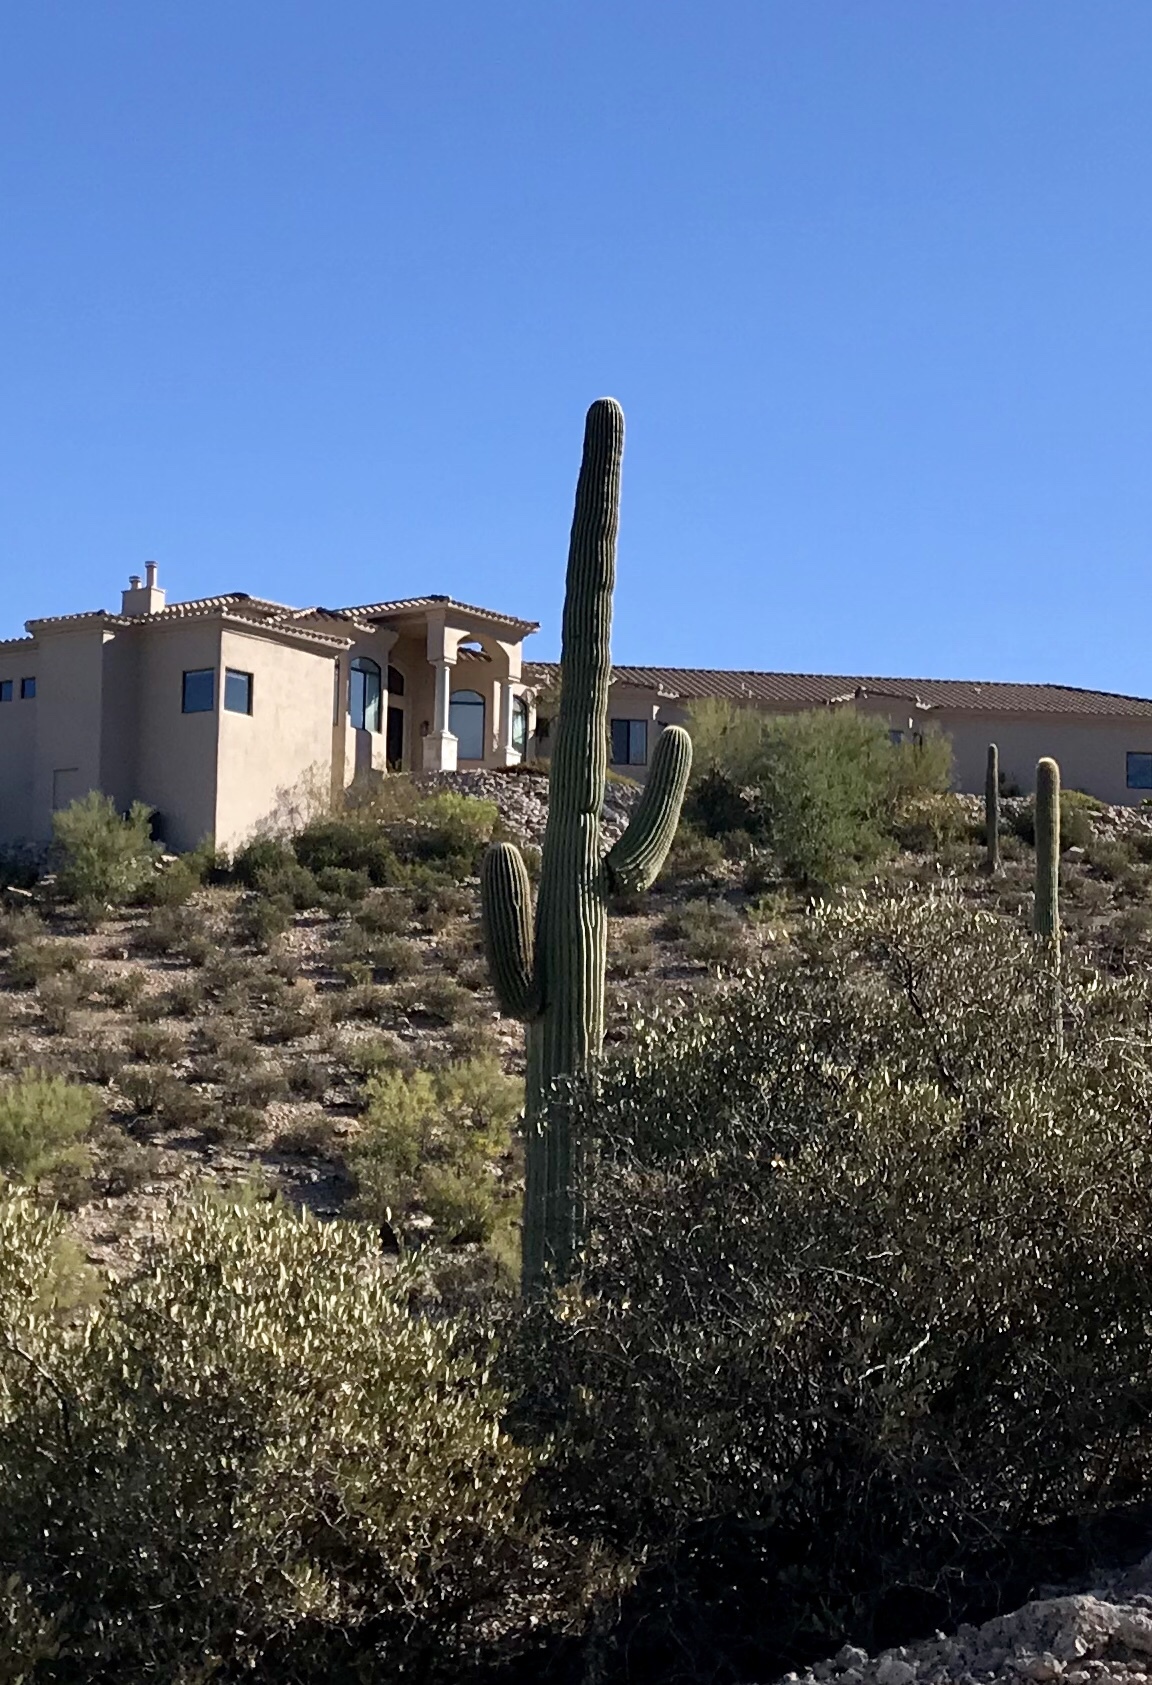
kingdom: Plantae
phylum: Tracheophyta
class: Magnoliopsida
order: Caryophyllales
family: Cactaceae
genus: Carnegiea
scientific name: Carnegiea gigantea
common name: Saguaro
